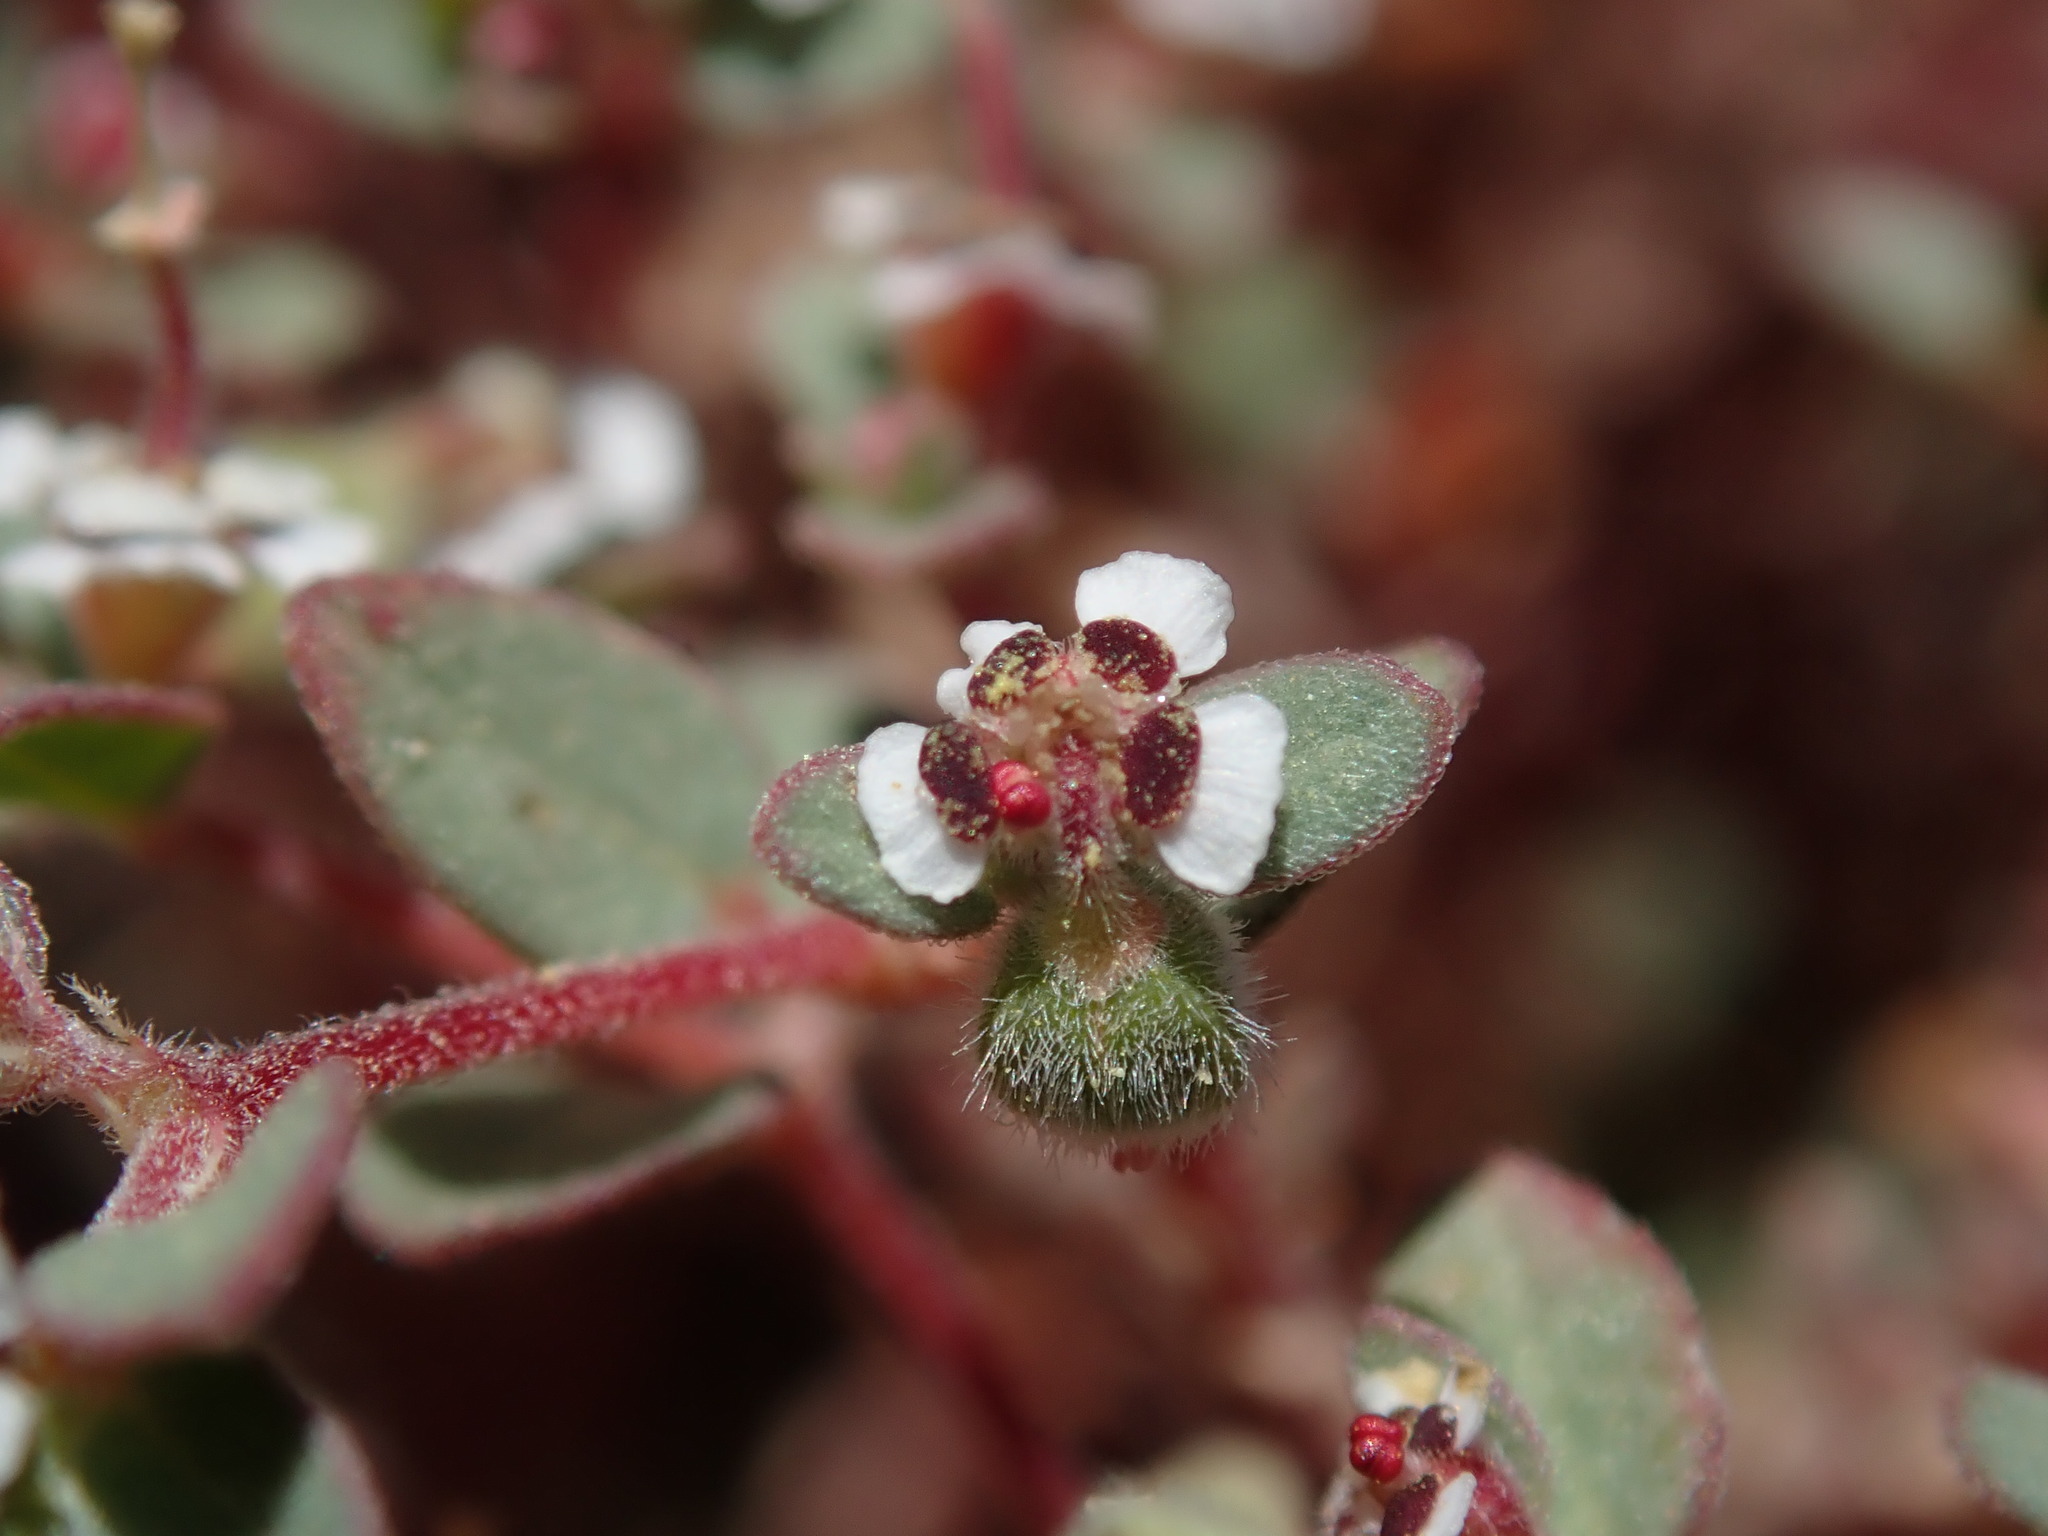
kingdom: Plantae
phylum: Tracheophyta
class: Magnoliopsida
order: Malpighiales
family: Euphorbiaceae
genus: Euphorbia
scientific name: Euphorbia melanadenia
